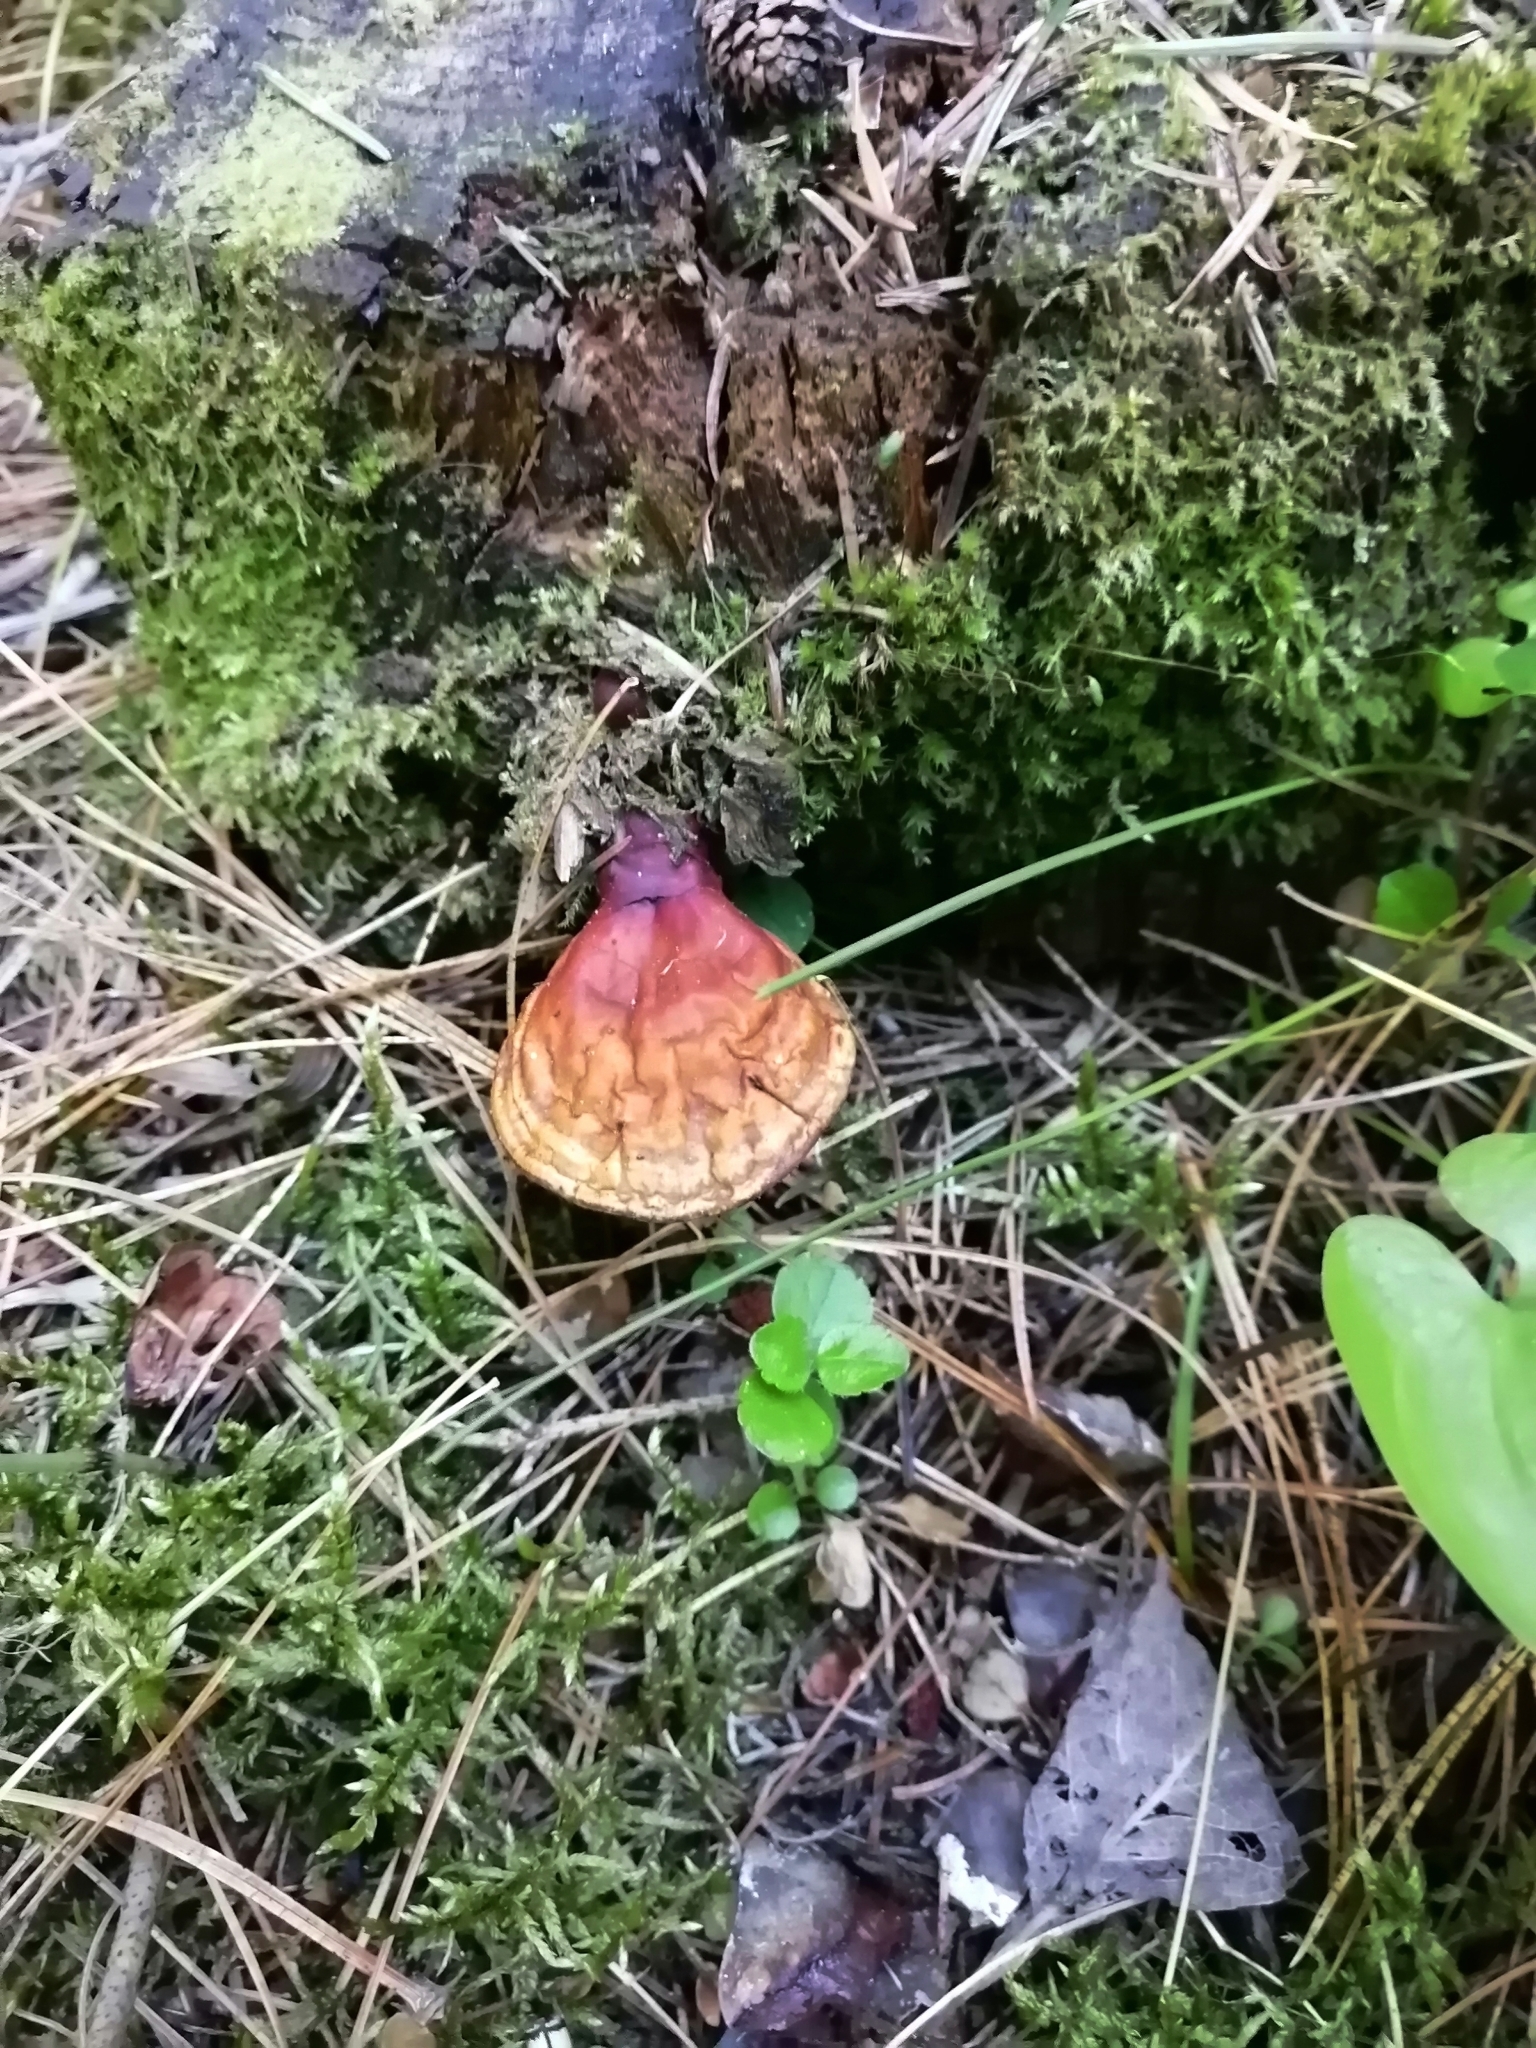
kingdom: Fungi
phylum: Basidiomycota
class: Agaricomycetes
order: Polyporales
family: Polyporaceae
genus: Ganoderma
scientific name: Ganoderma lucidum
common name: Lacquered bracket
